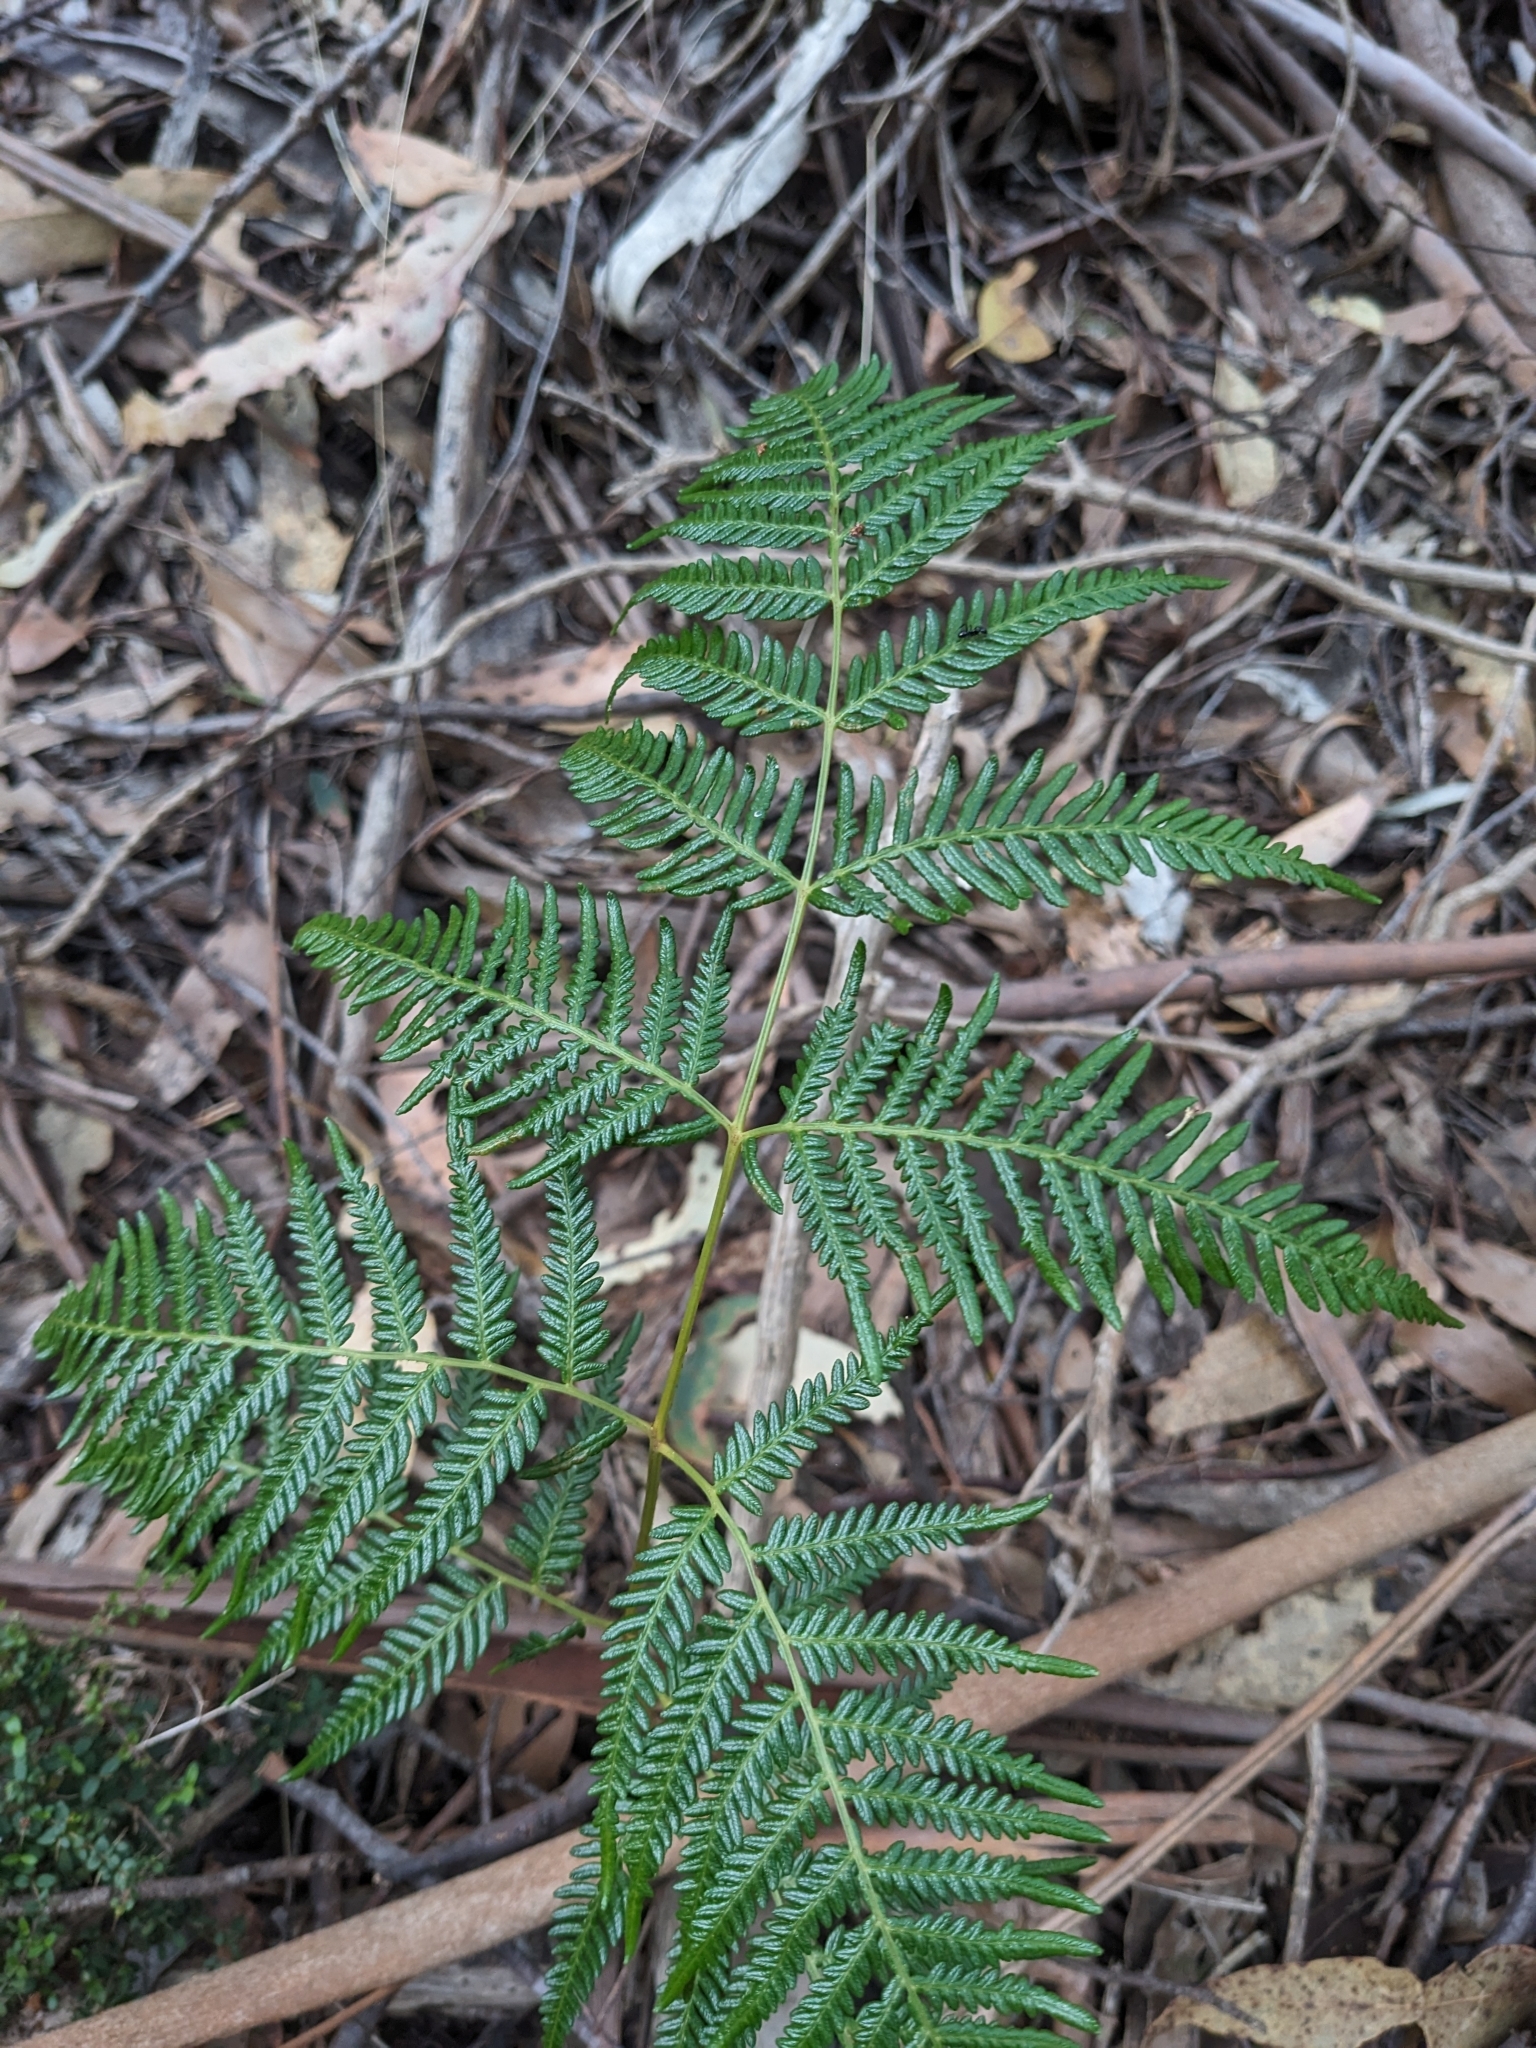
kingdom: Plantae
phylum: Tracheophyta
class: Polypodiopsida
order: Polypodiales
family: Dennstaedtiaceae
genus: Pteridium
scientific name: Pteridium esculentum
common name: Bracken fern
